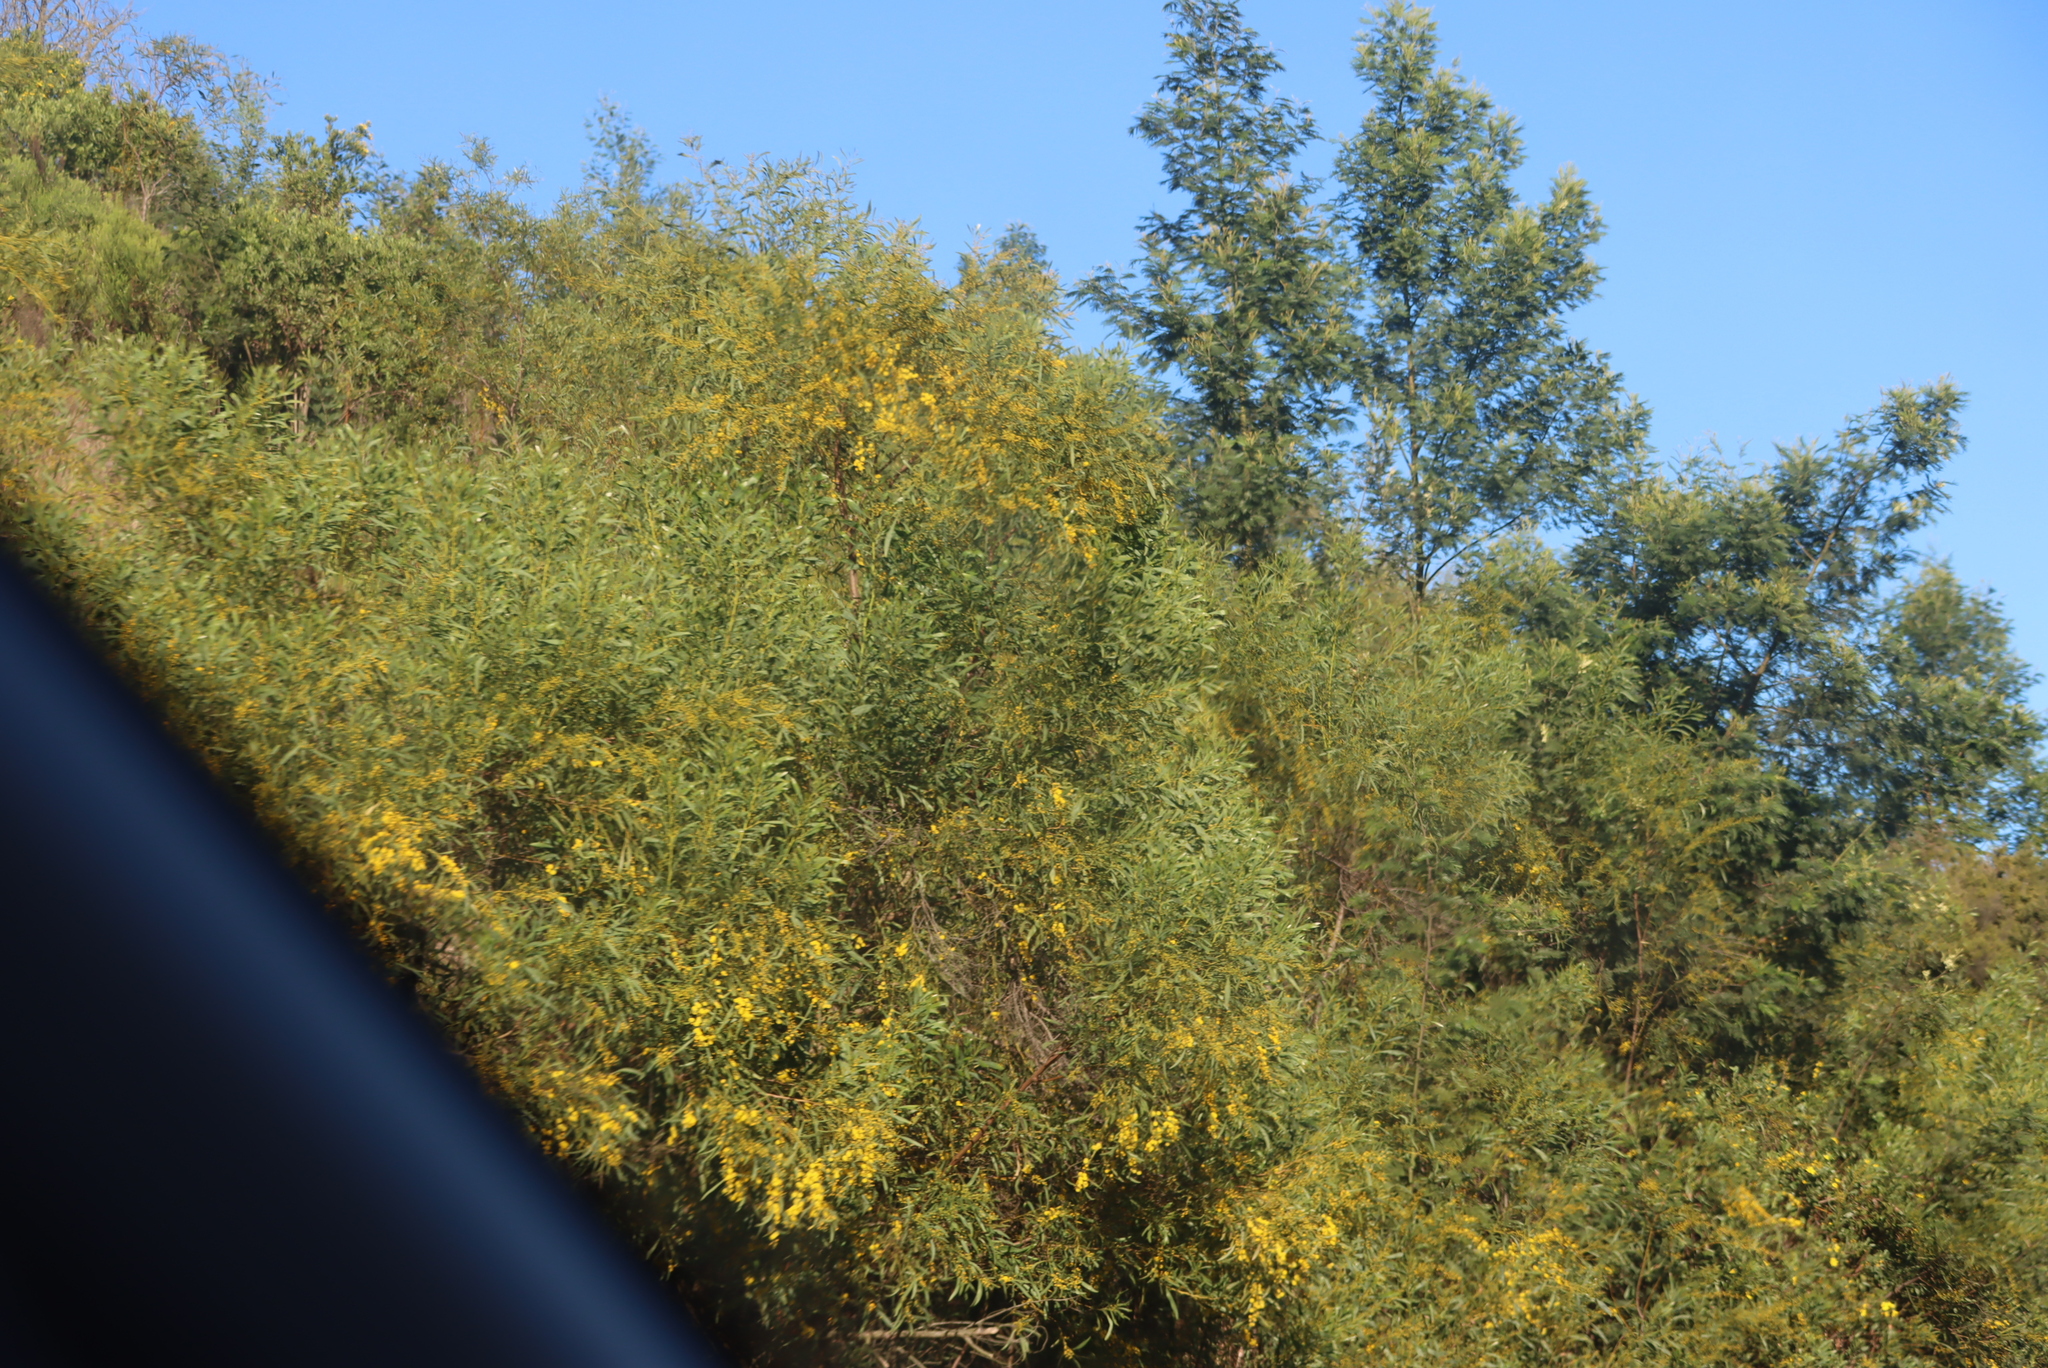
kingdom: Plantae
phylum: Tracheophyta
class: Magnoliopsida
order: Fabales
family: Fabaceae
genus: Acacia
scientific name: Acacia saligna
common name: Orange wattle
